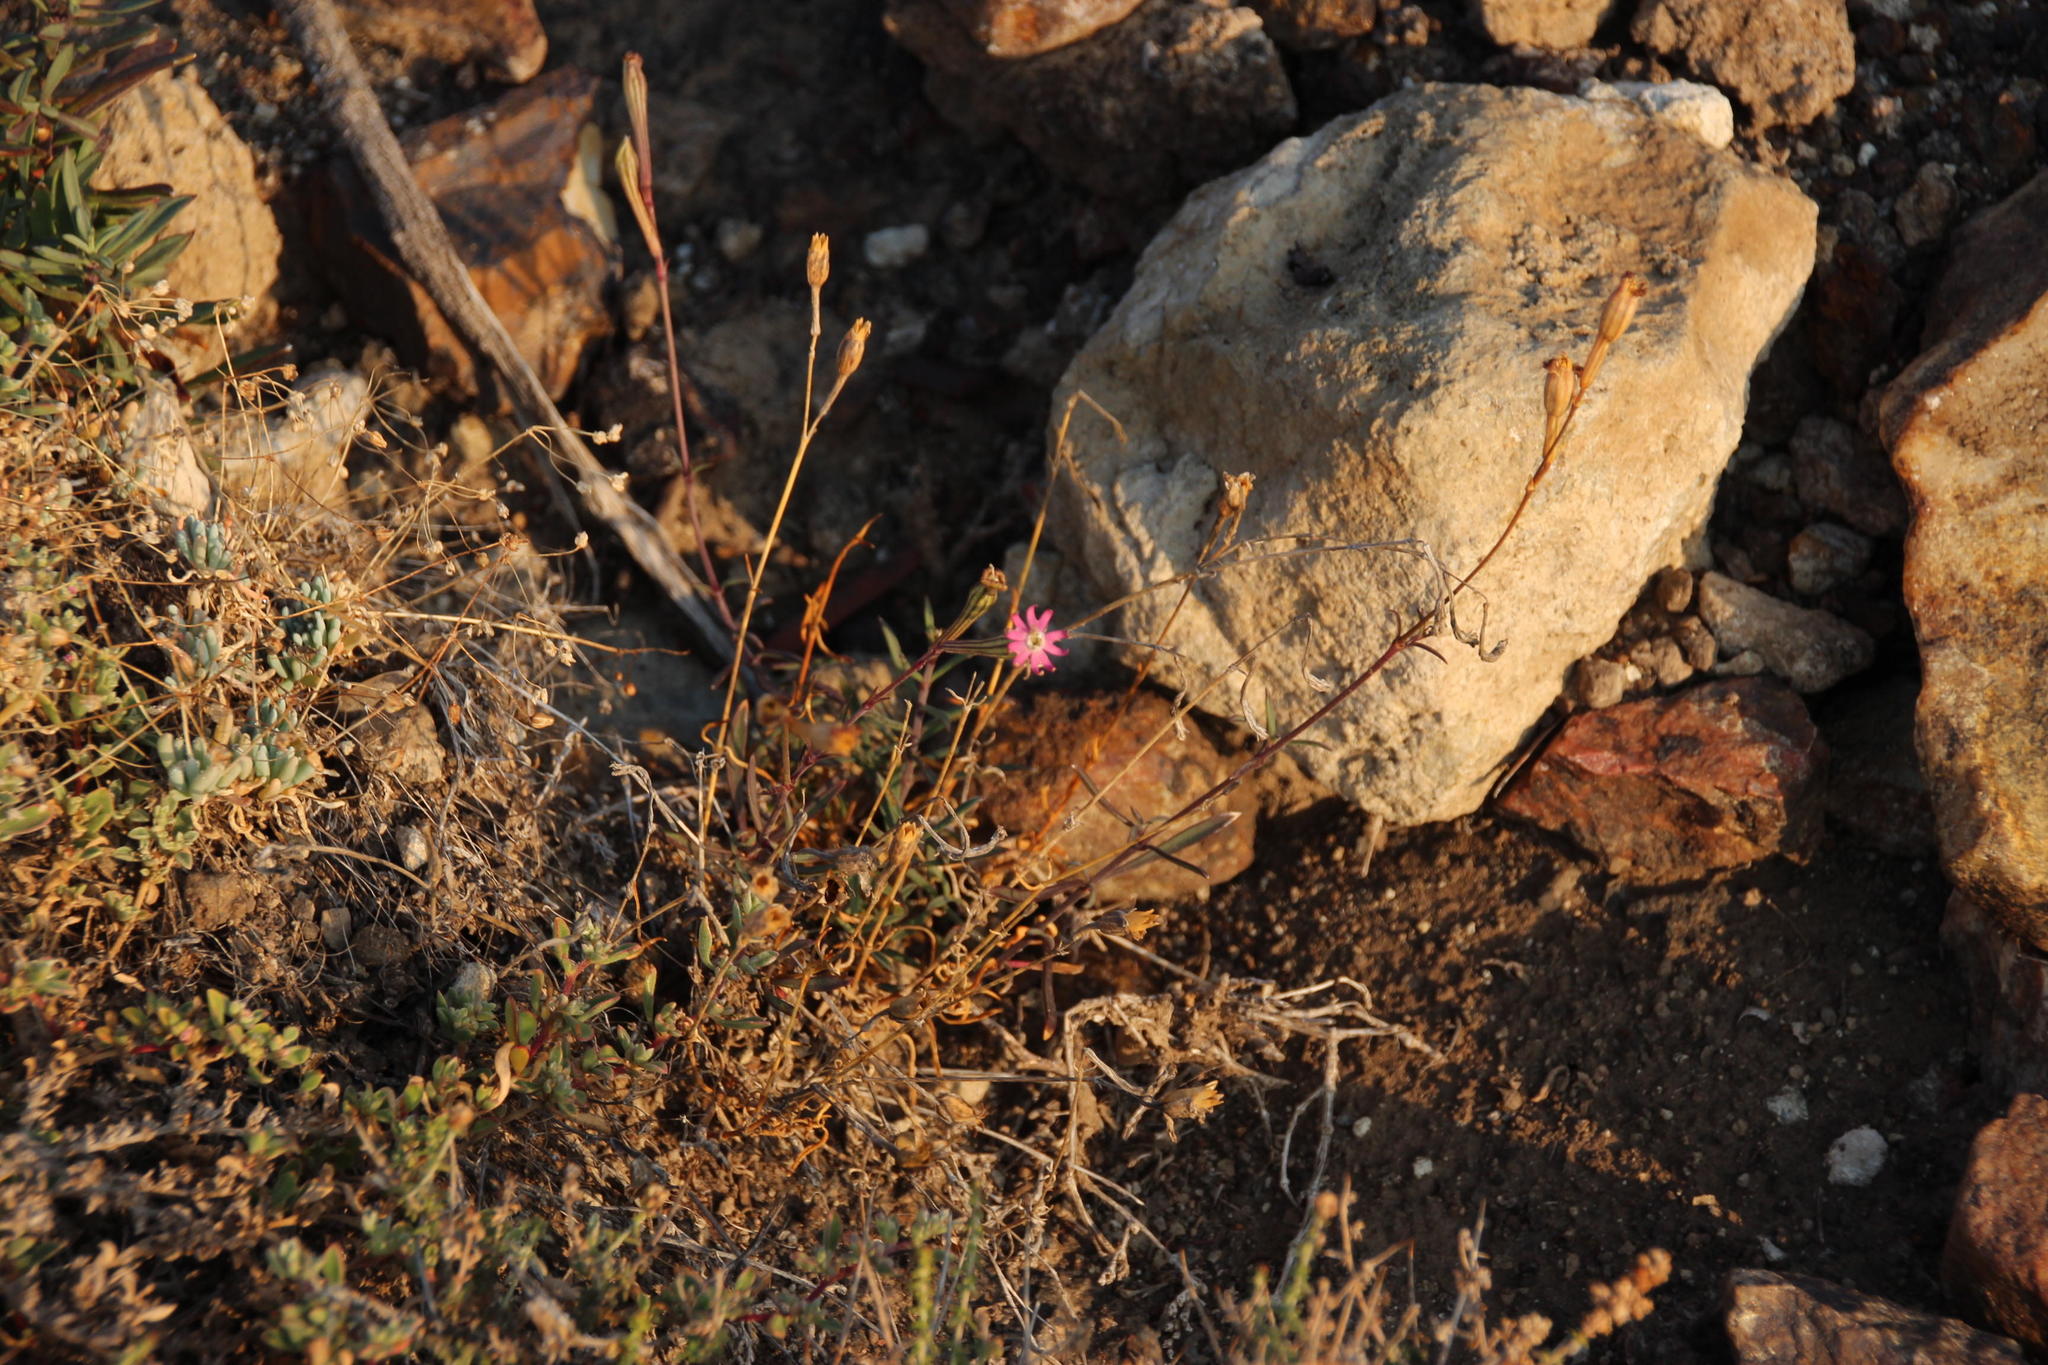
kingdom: Plantae
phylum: Tracheophyta
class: Magnoliopsida
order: Caryophyllales
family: Caryophyllaceae
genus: Silene
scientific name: Silene burchellii
